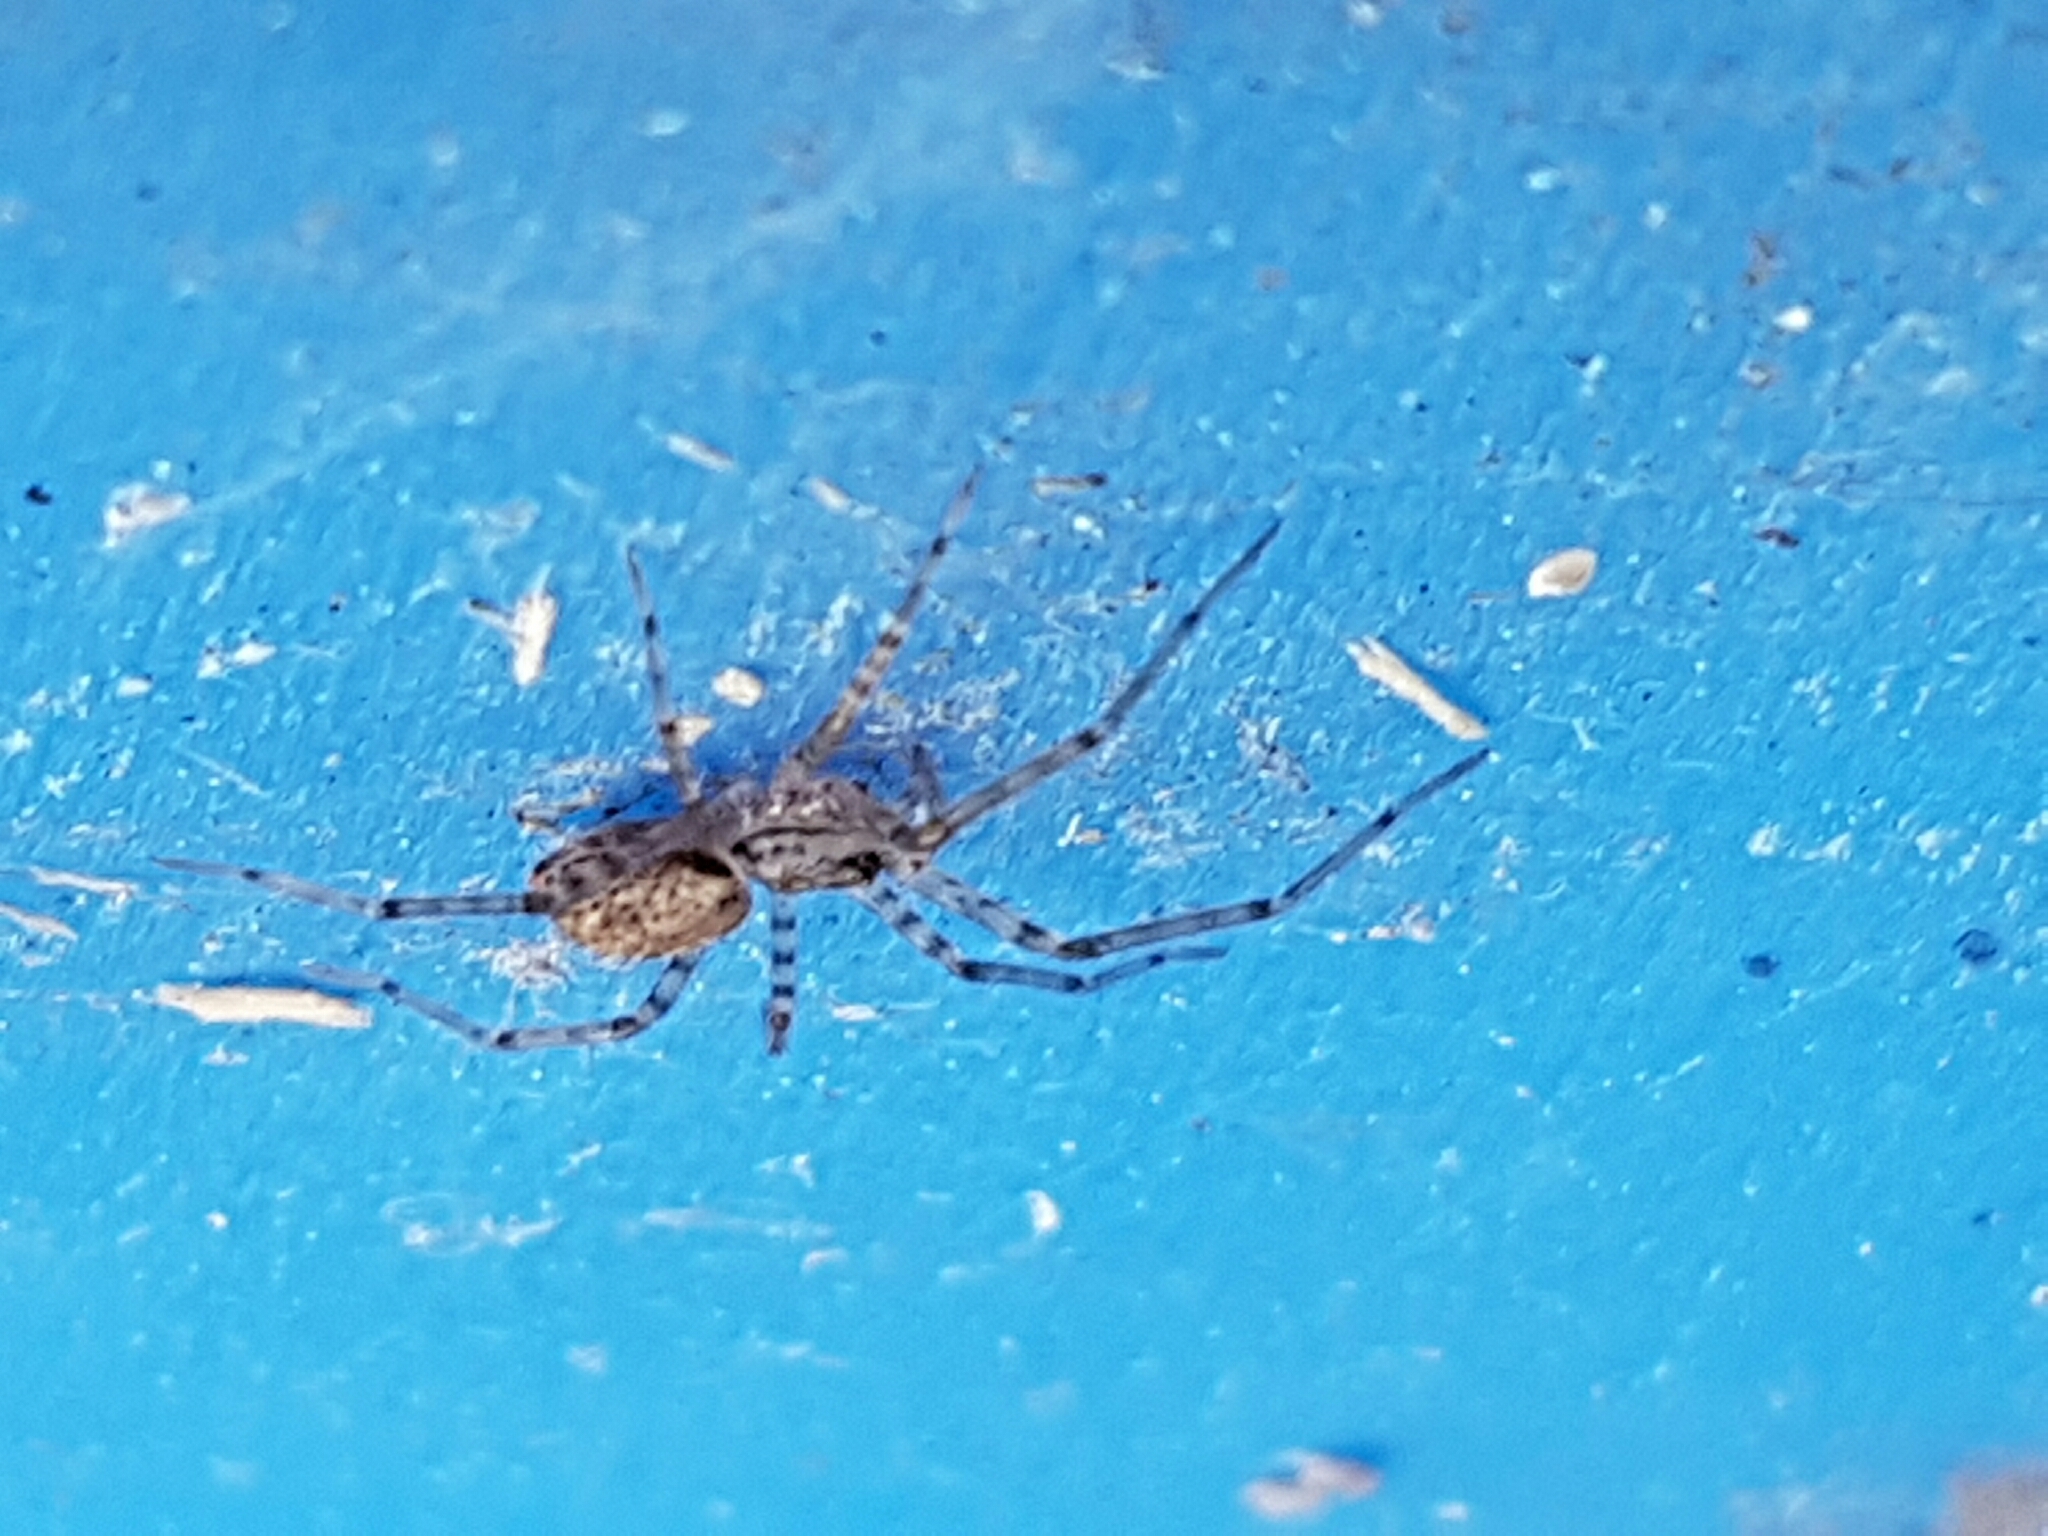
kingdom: Animalia
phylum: Arthropoda
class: Arachnida
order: Araneae
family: Stiphidiidae
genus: Stiphidion
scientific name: Stiphidion facetum
